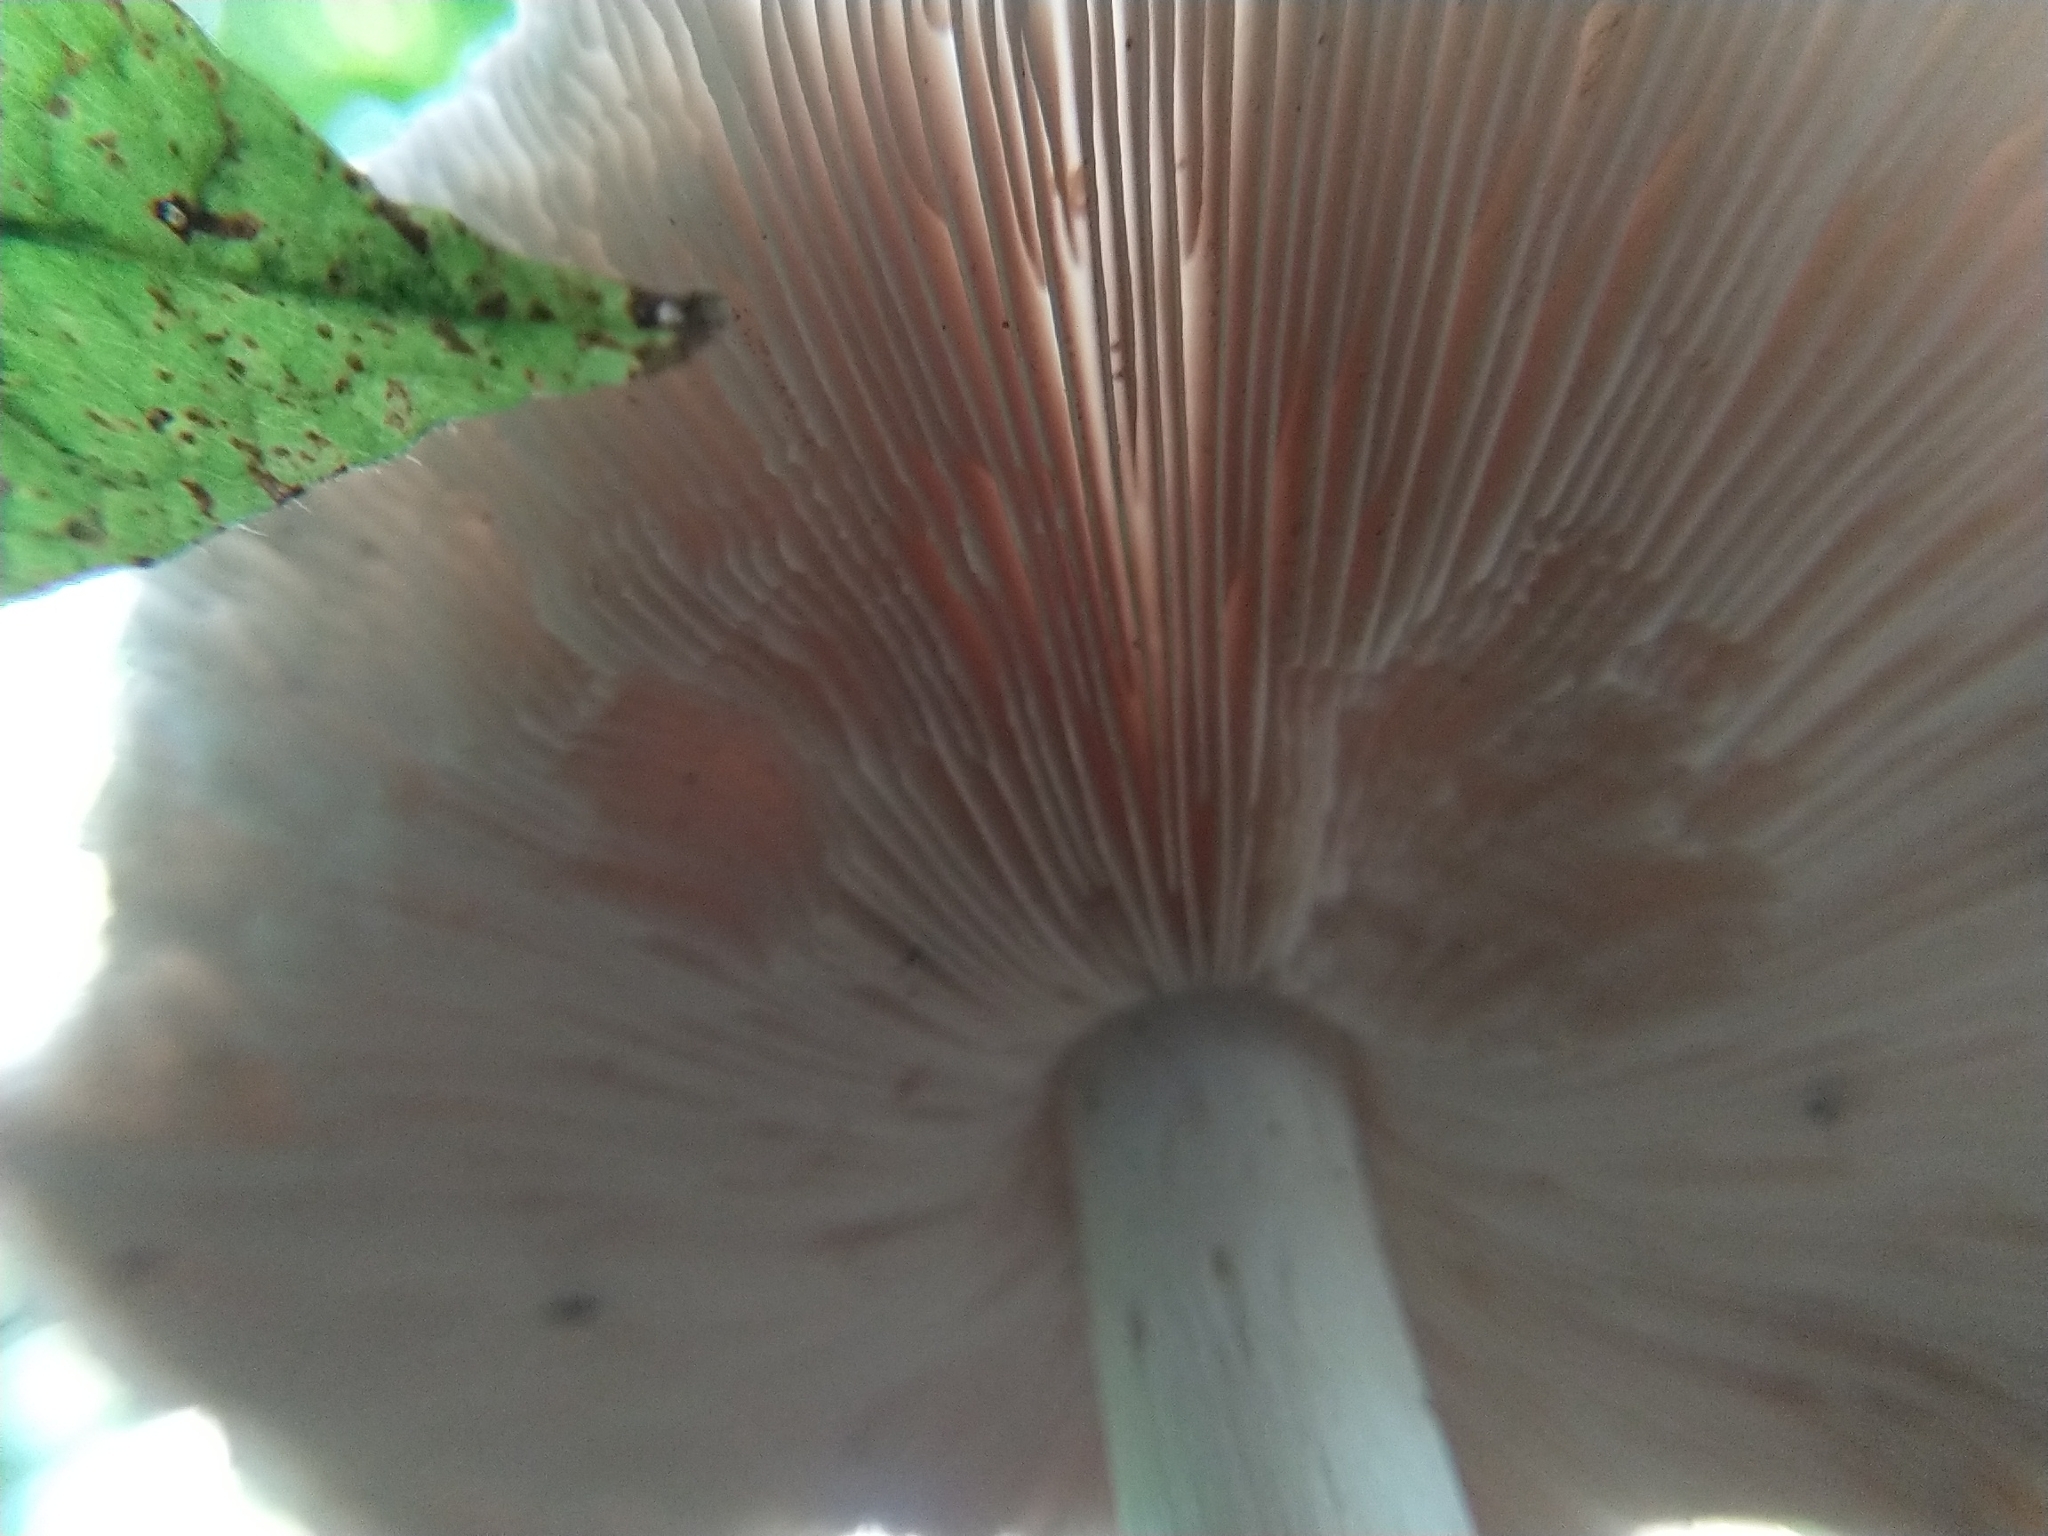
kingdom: Fungi
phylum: Basidiomycota
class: Agaricomycetes
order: Agaricales
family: Pluteaceae
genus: Pluteus
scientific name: Pluteus cervinus
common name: Deer shield
